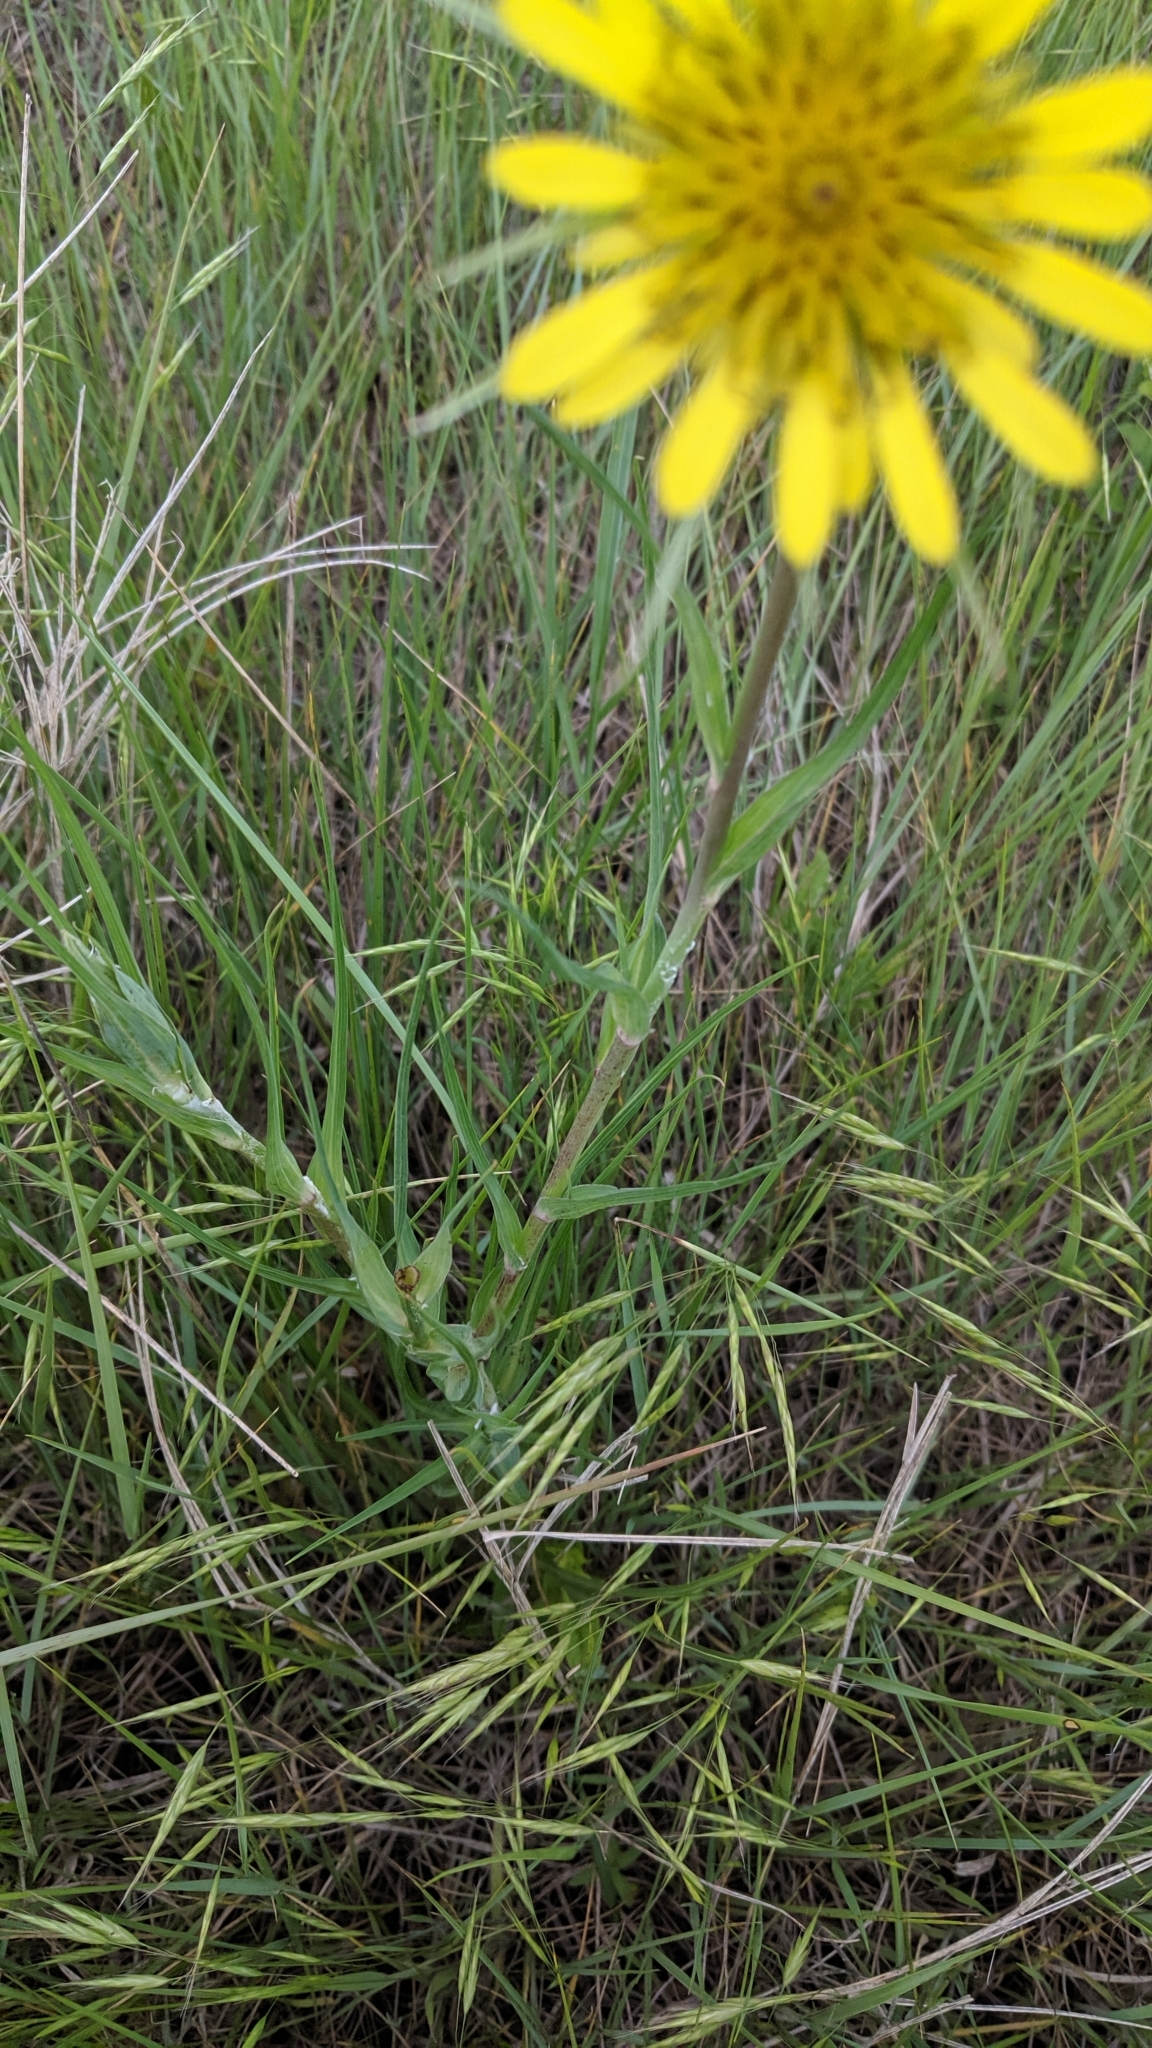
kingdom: Plantae
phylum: Tracheophyta
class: Magnoliopsida
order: Asterales
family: Asteraceae
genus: Tragopogon
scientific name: Tragopogon dubius
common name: Yellow salsify
